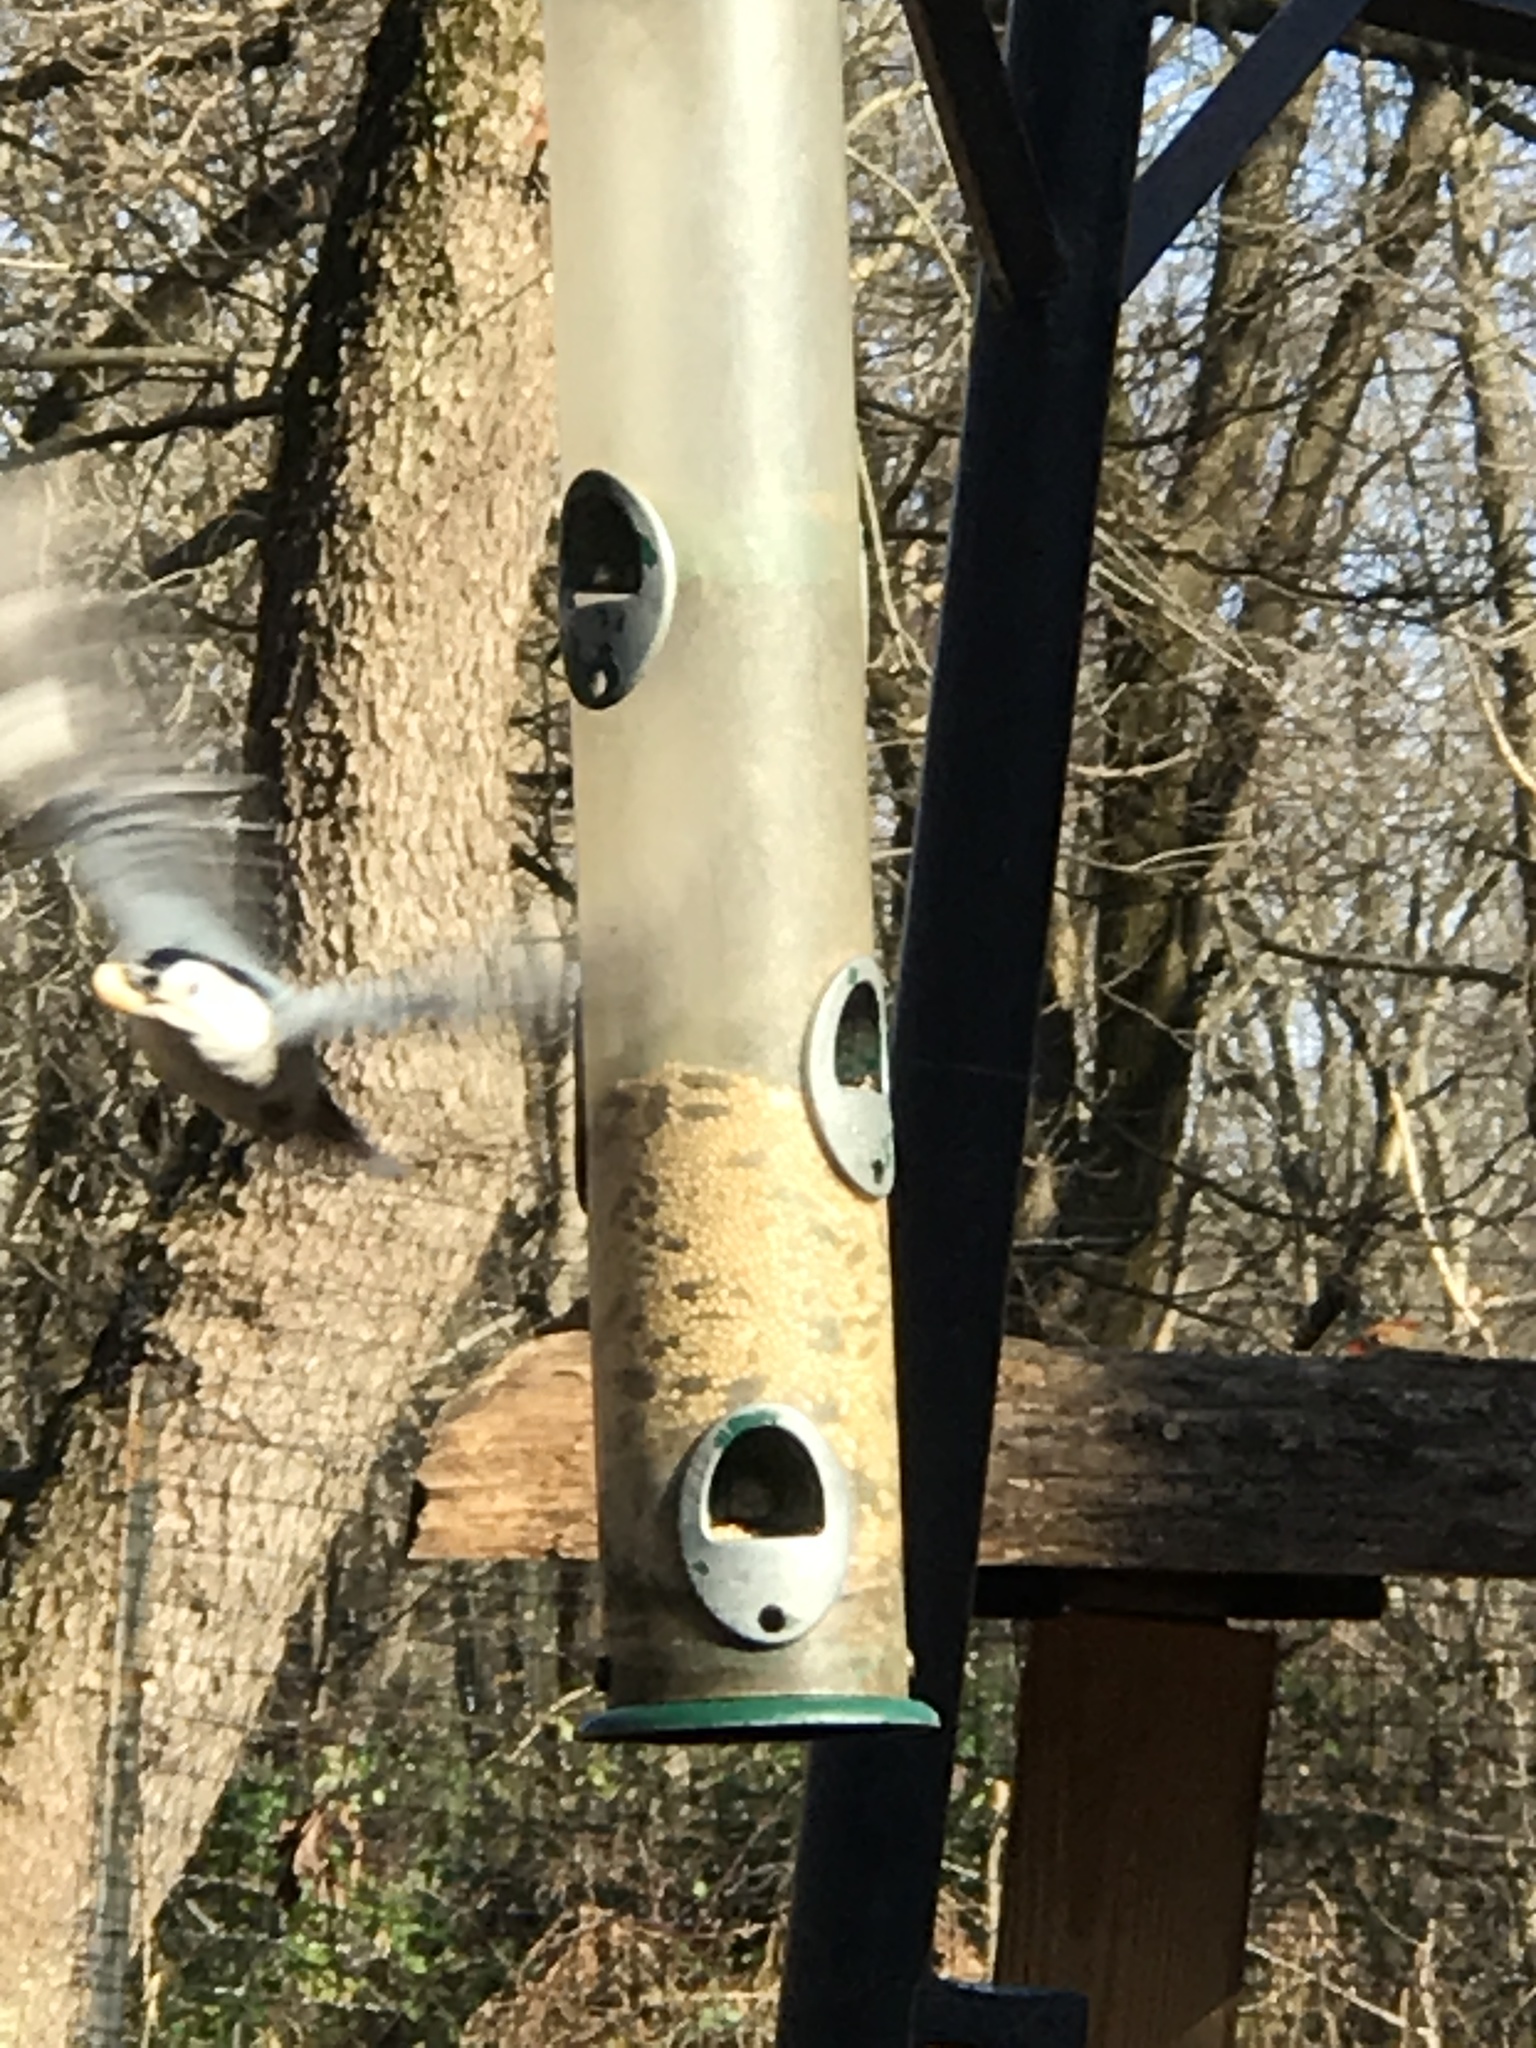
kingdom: Animalia
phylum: Chordata
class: Aves
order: Passeriformes
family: Sittidae
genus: Sitta
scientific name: Sitta carolinensis
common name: White-breasted nuthatch
